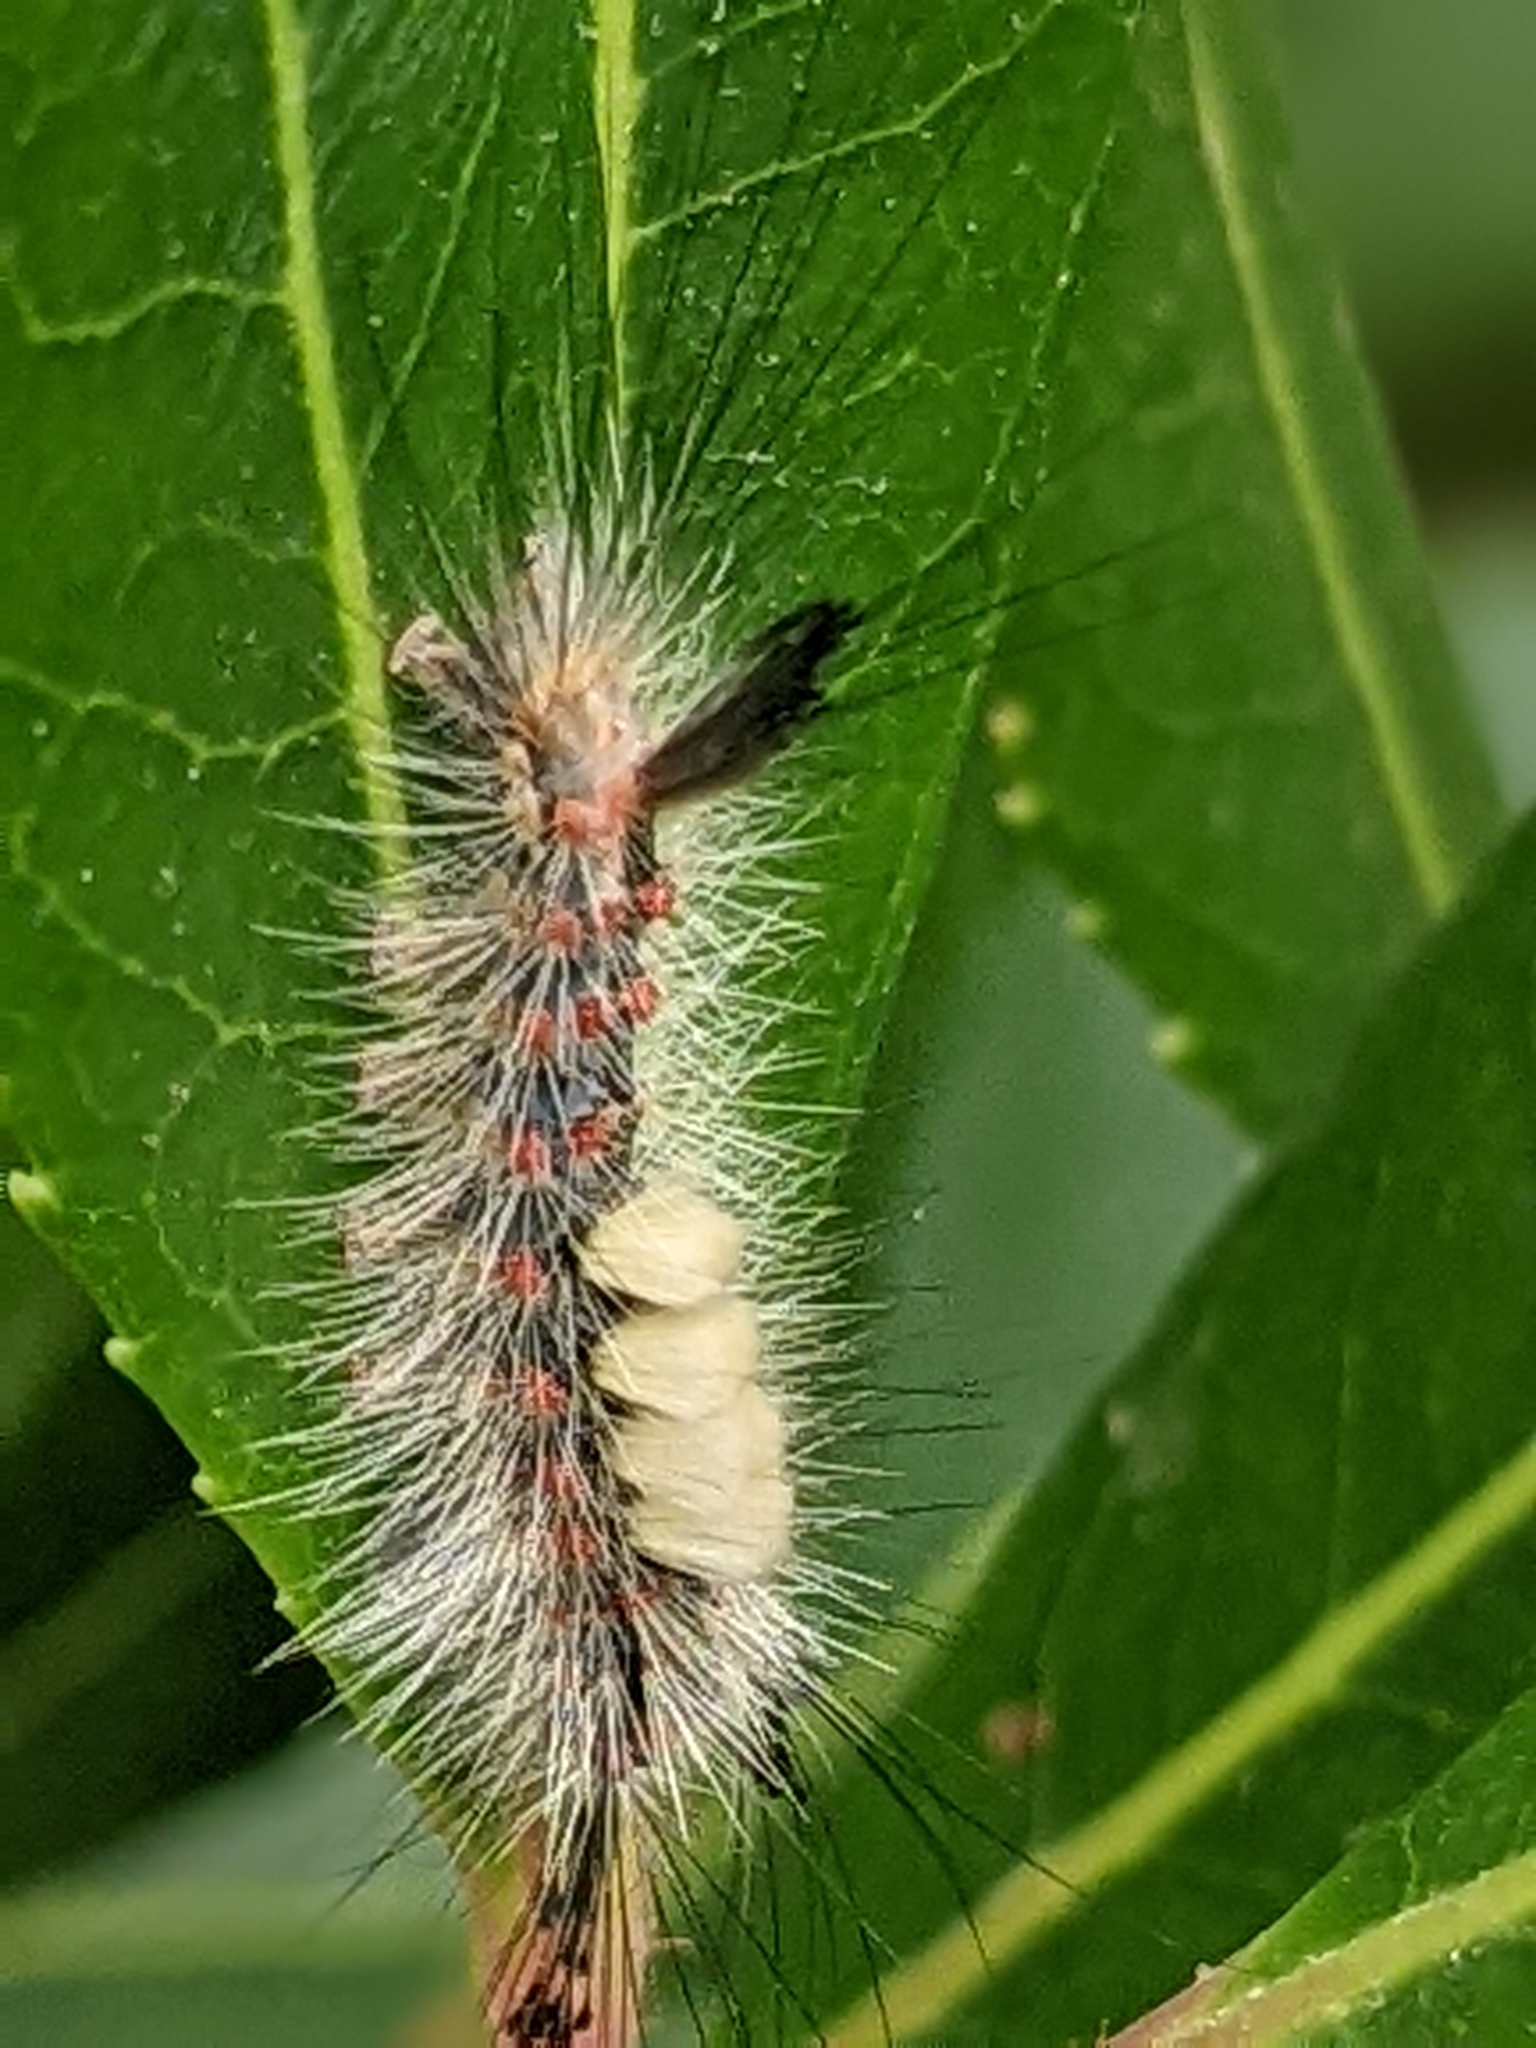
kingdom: Animalia
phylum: Arthropoda
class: Insecta
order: Lepidoptera
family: Erebidae
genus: Orgyia
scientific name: Orgyia antiqua
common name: Vapourer
